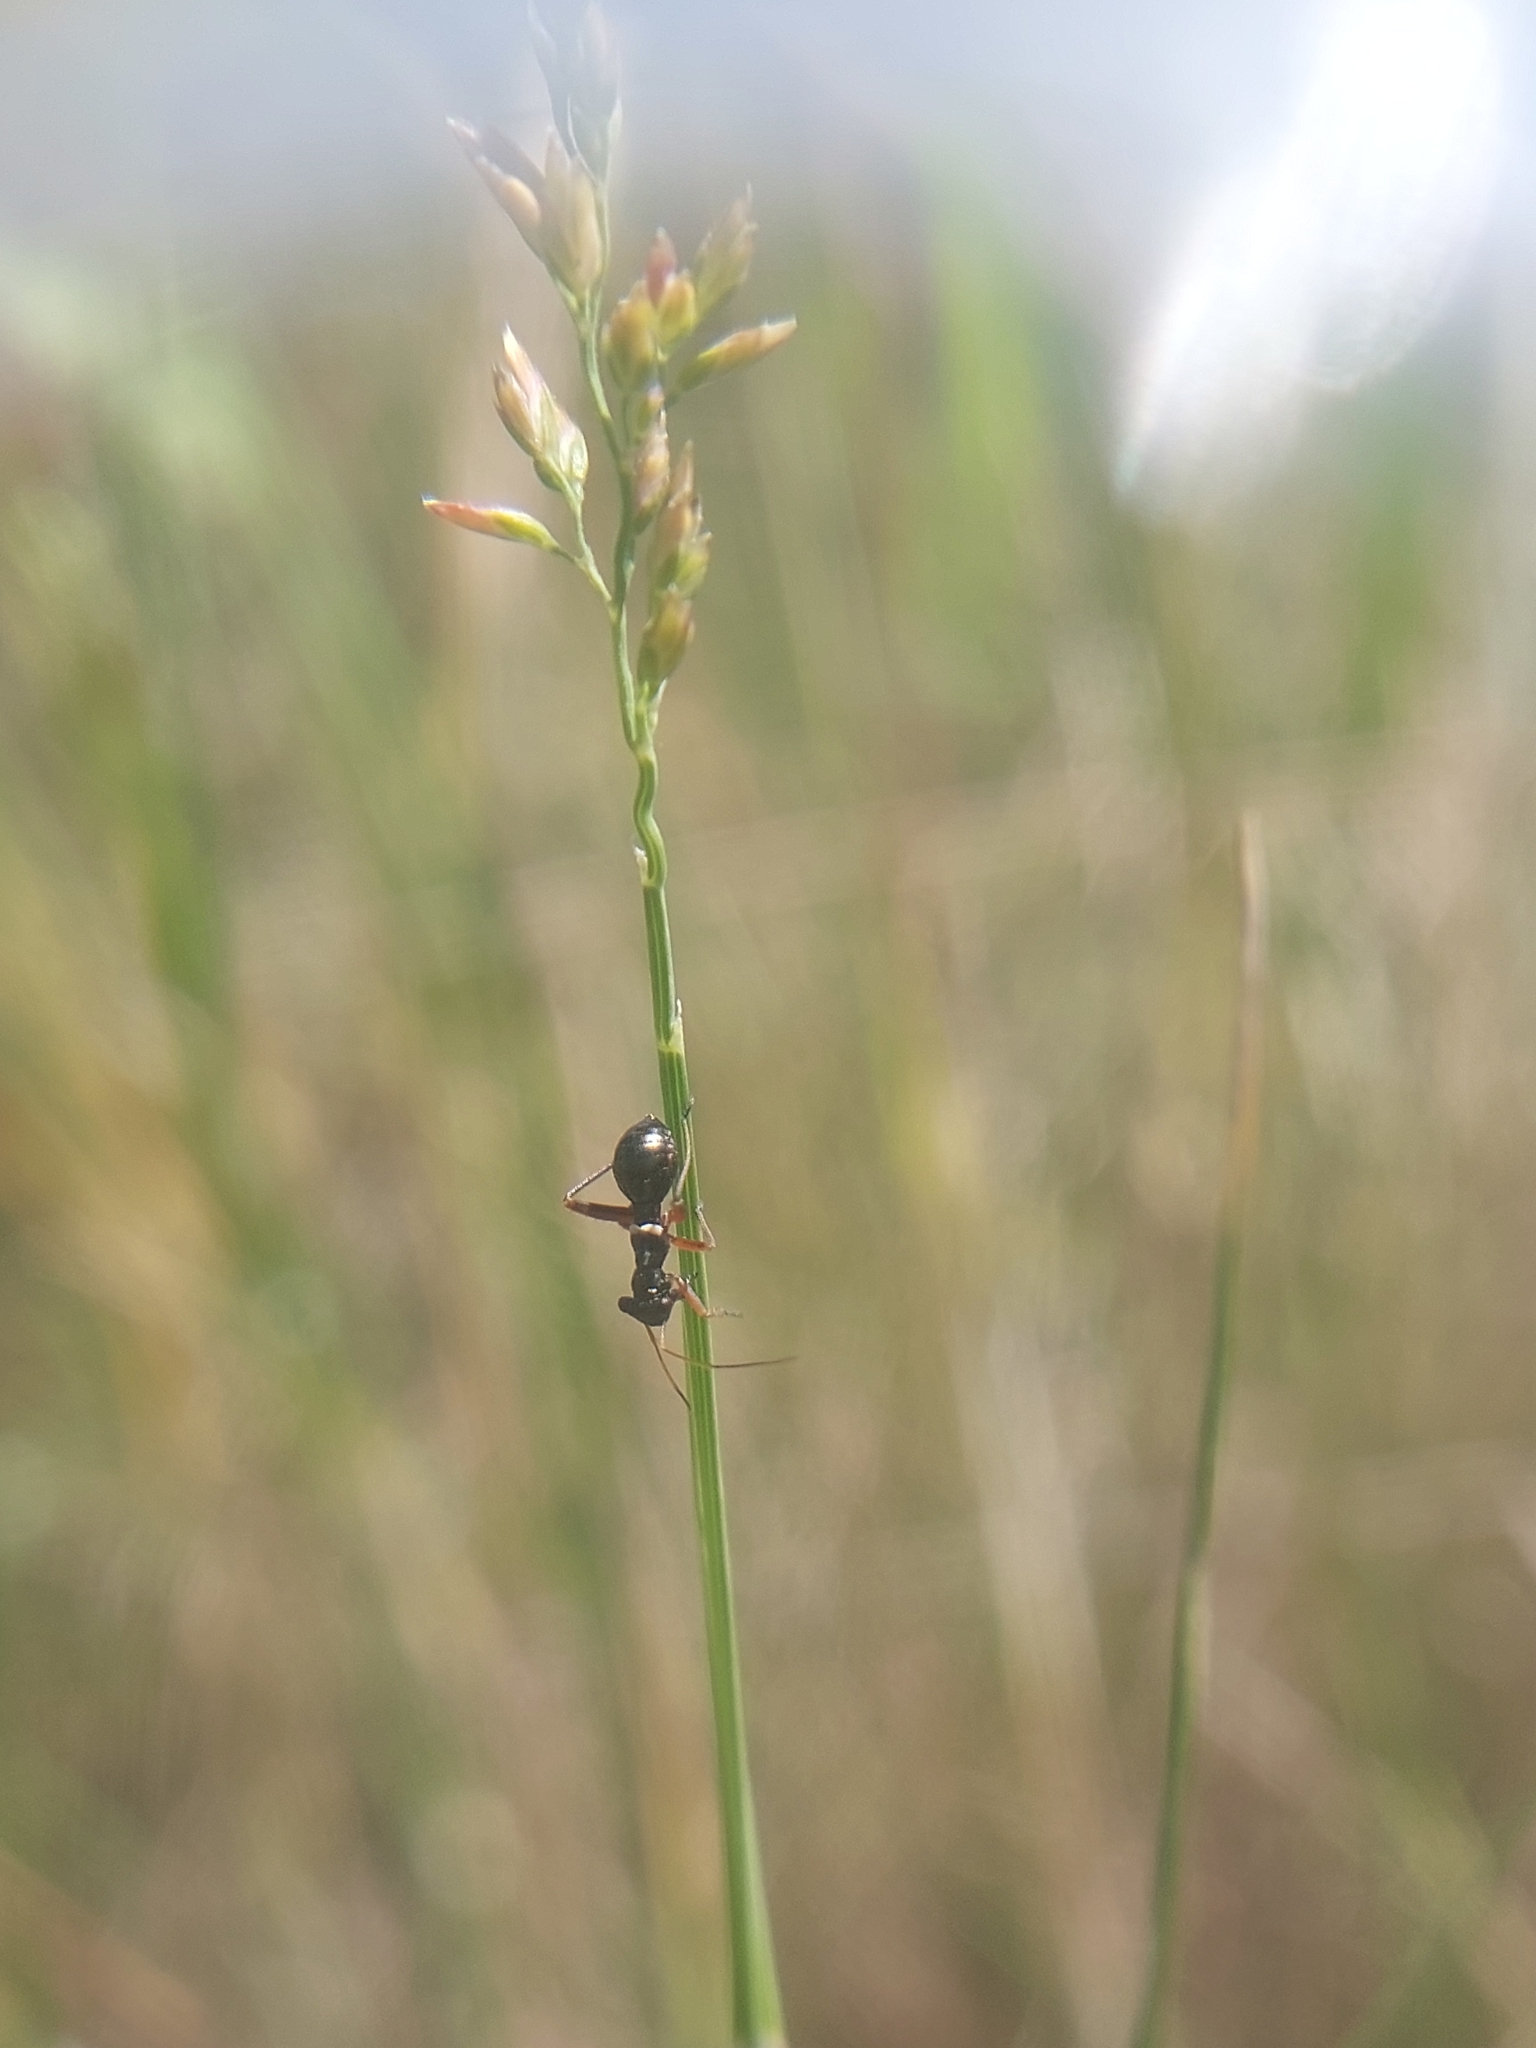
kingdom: Animalia
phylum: Arthropoda
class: Insecta
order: Hemiptera
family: Miridae
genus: Myrmecophyes
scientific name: Myrmecophyes alboornatus
